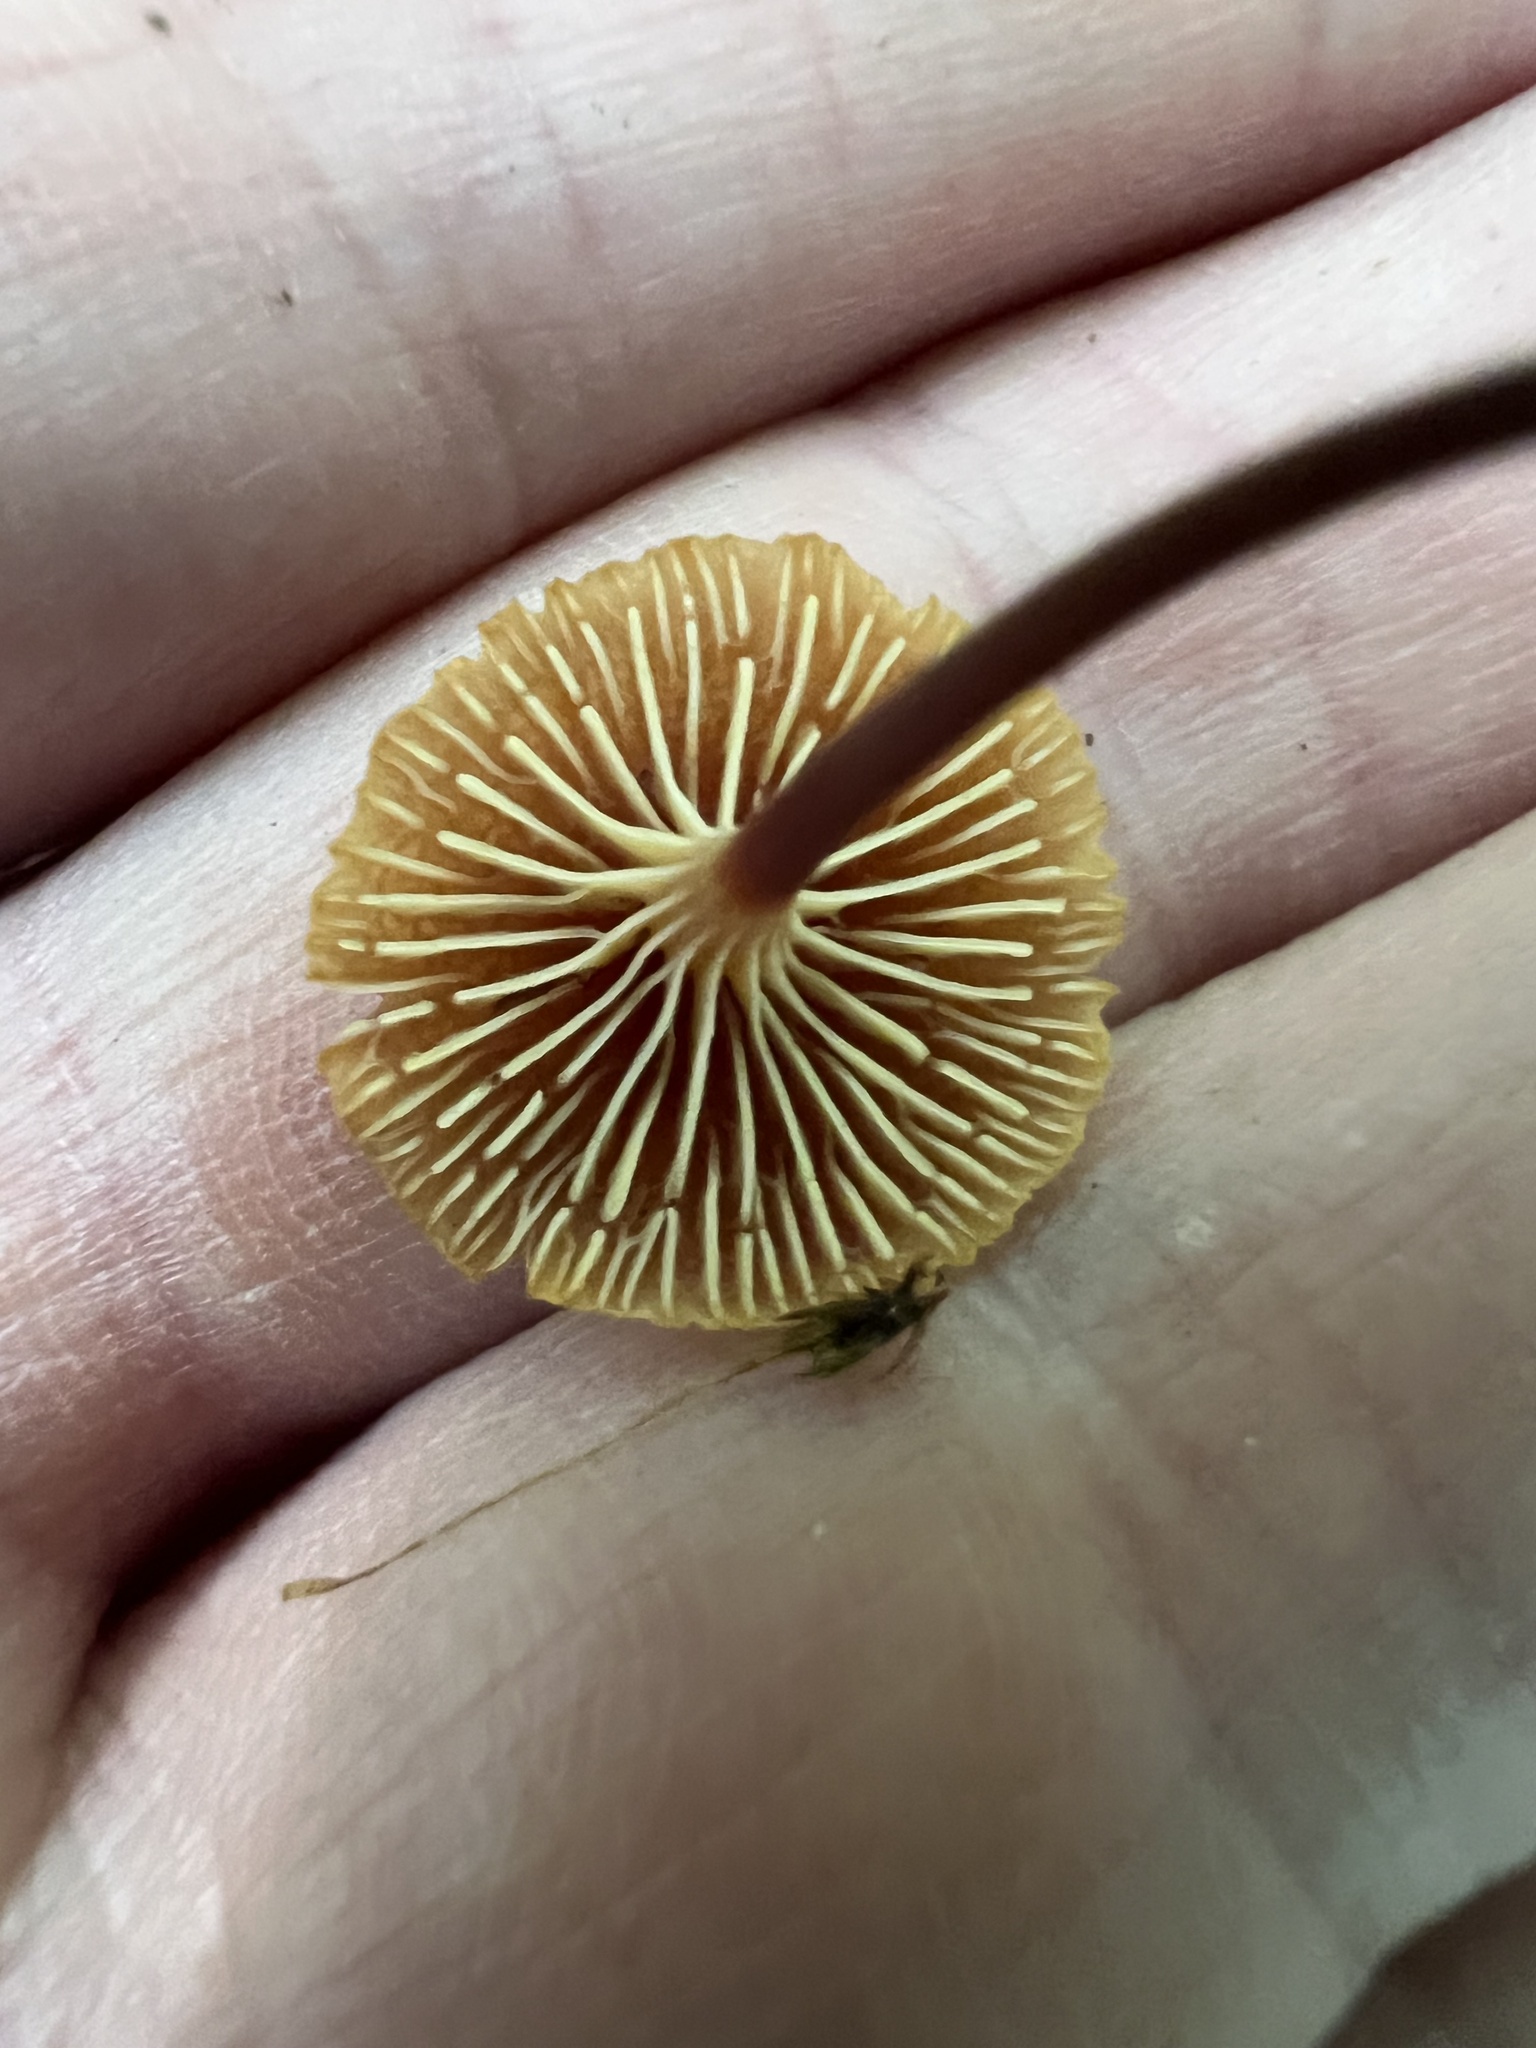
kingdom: Fungi
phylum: Basidiomycota
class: Agaricomycetes
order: Agaricales
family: Mycenaceae
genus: Xeromphalina
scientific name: Xeromphalina campanella
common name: Pinewood gingertail
